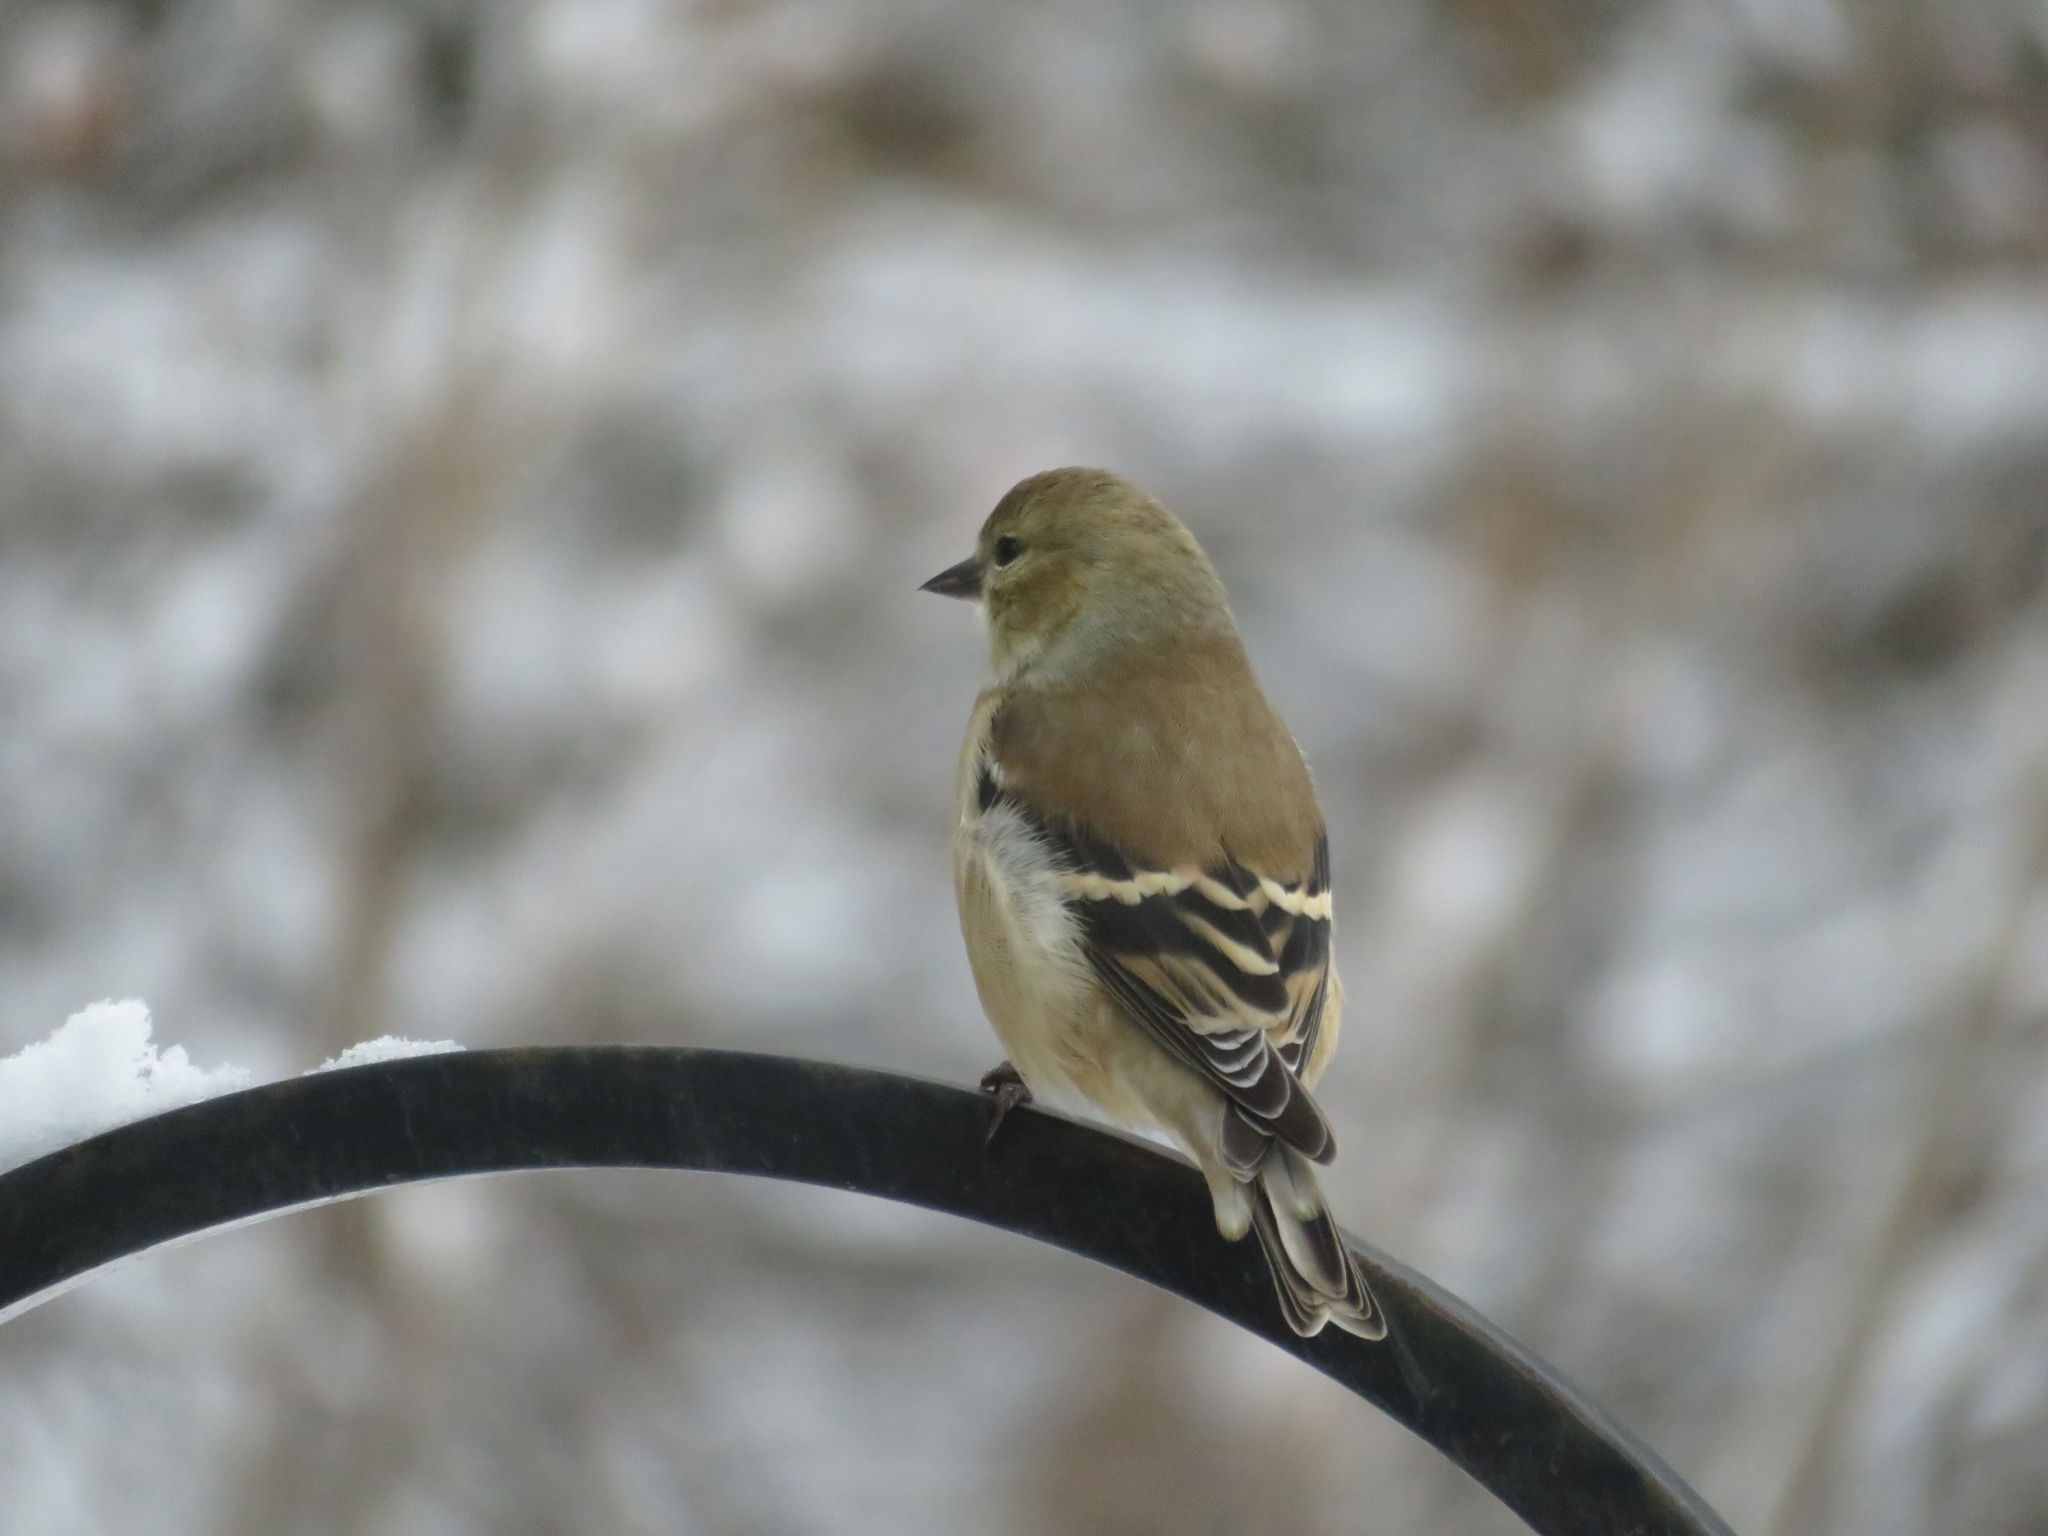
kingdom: Animalia
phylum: Chordata
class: Aves
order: Passeriformes
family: Fringillidae
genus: Spinus
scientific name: Spinus tristis
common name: American goldfinch
